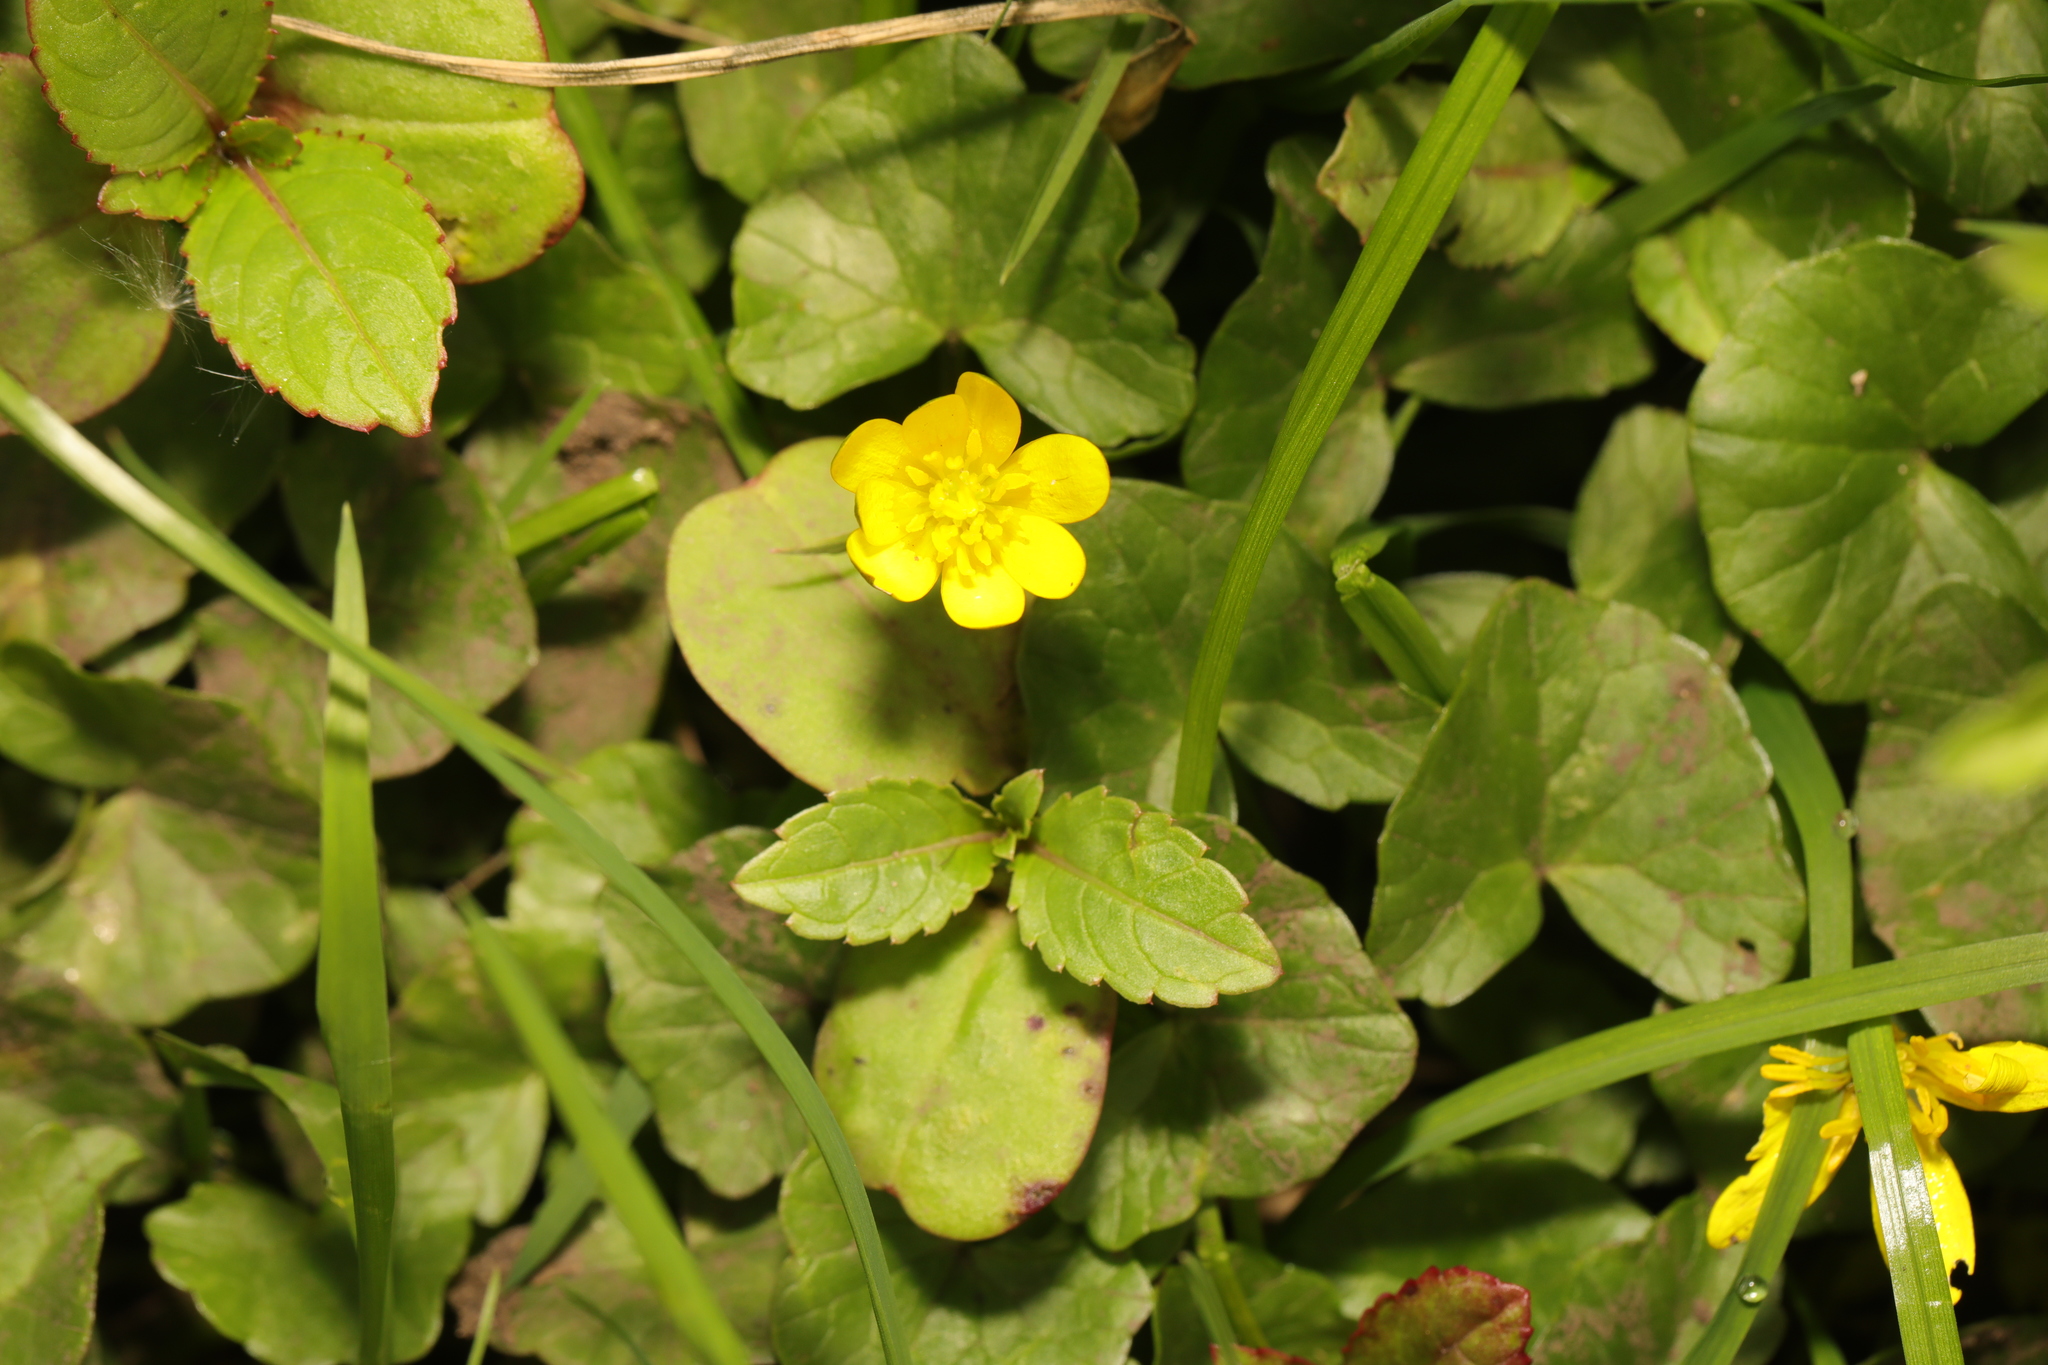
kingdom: Plantae
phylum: Tracheophyta
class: Magnoliopsida
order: Ranunculales
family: Ranunculaceae
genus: Ficaria
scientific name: Ficaria verna
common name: Lesser celandine
